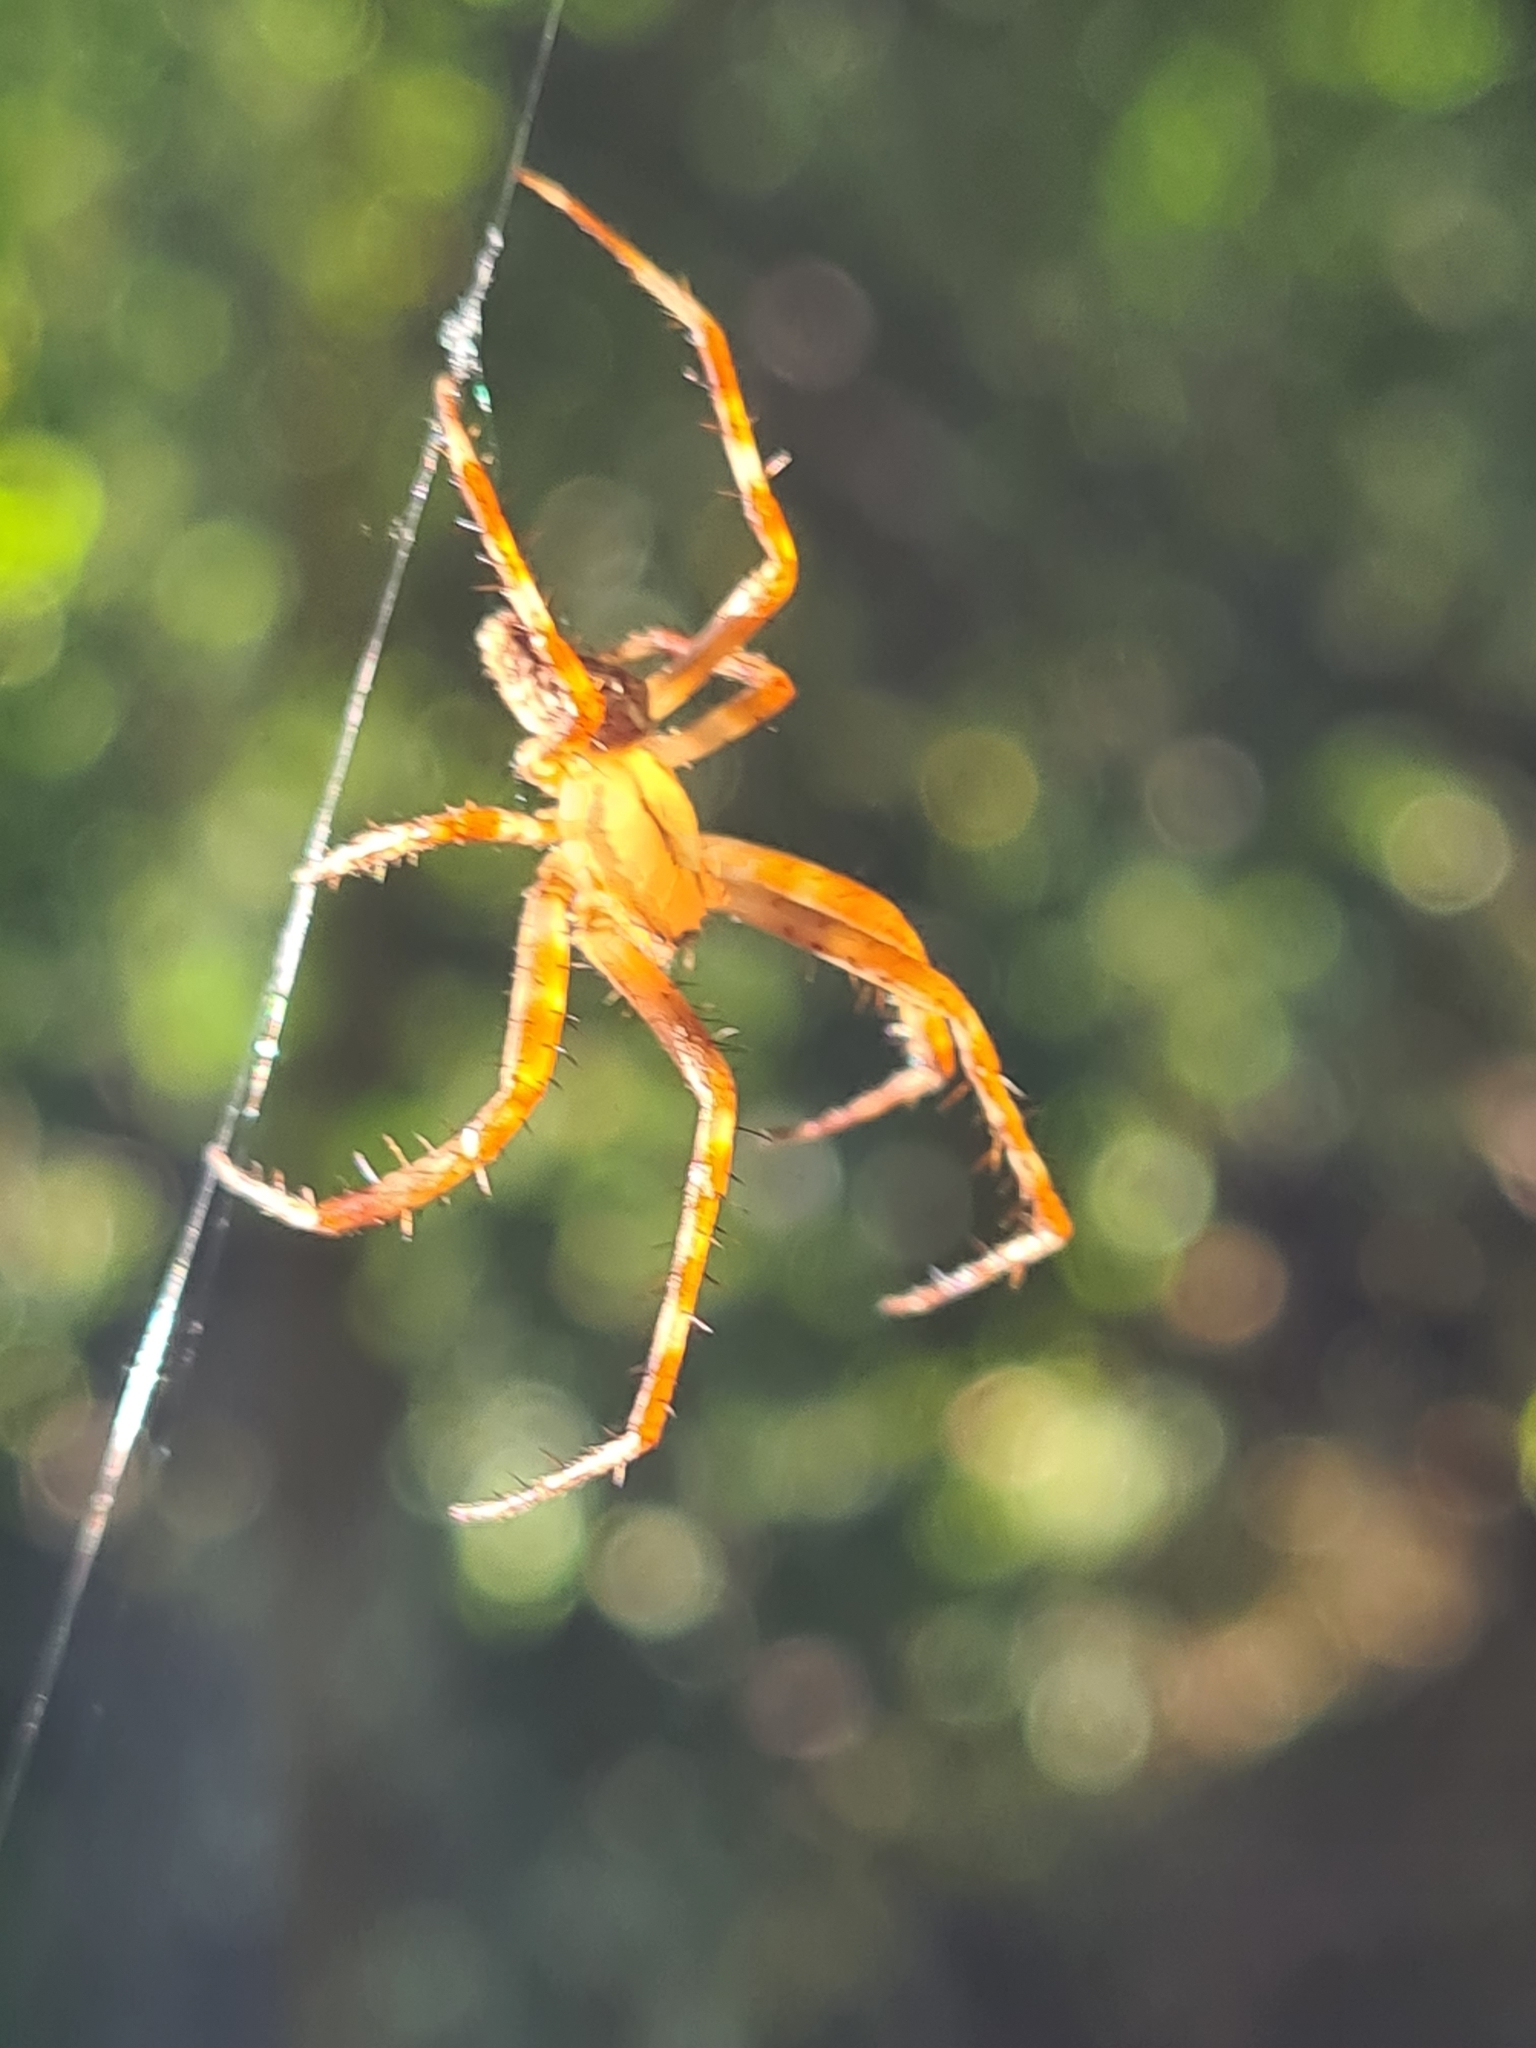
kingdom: Animalia
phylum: Arthropoda
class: Arachnida
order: Araneae
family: Araneidae
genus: Araneus
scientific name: Araneus diadematus
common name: Cross orbweaver
